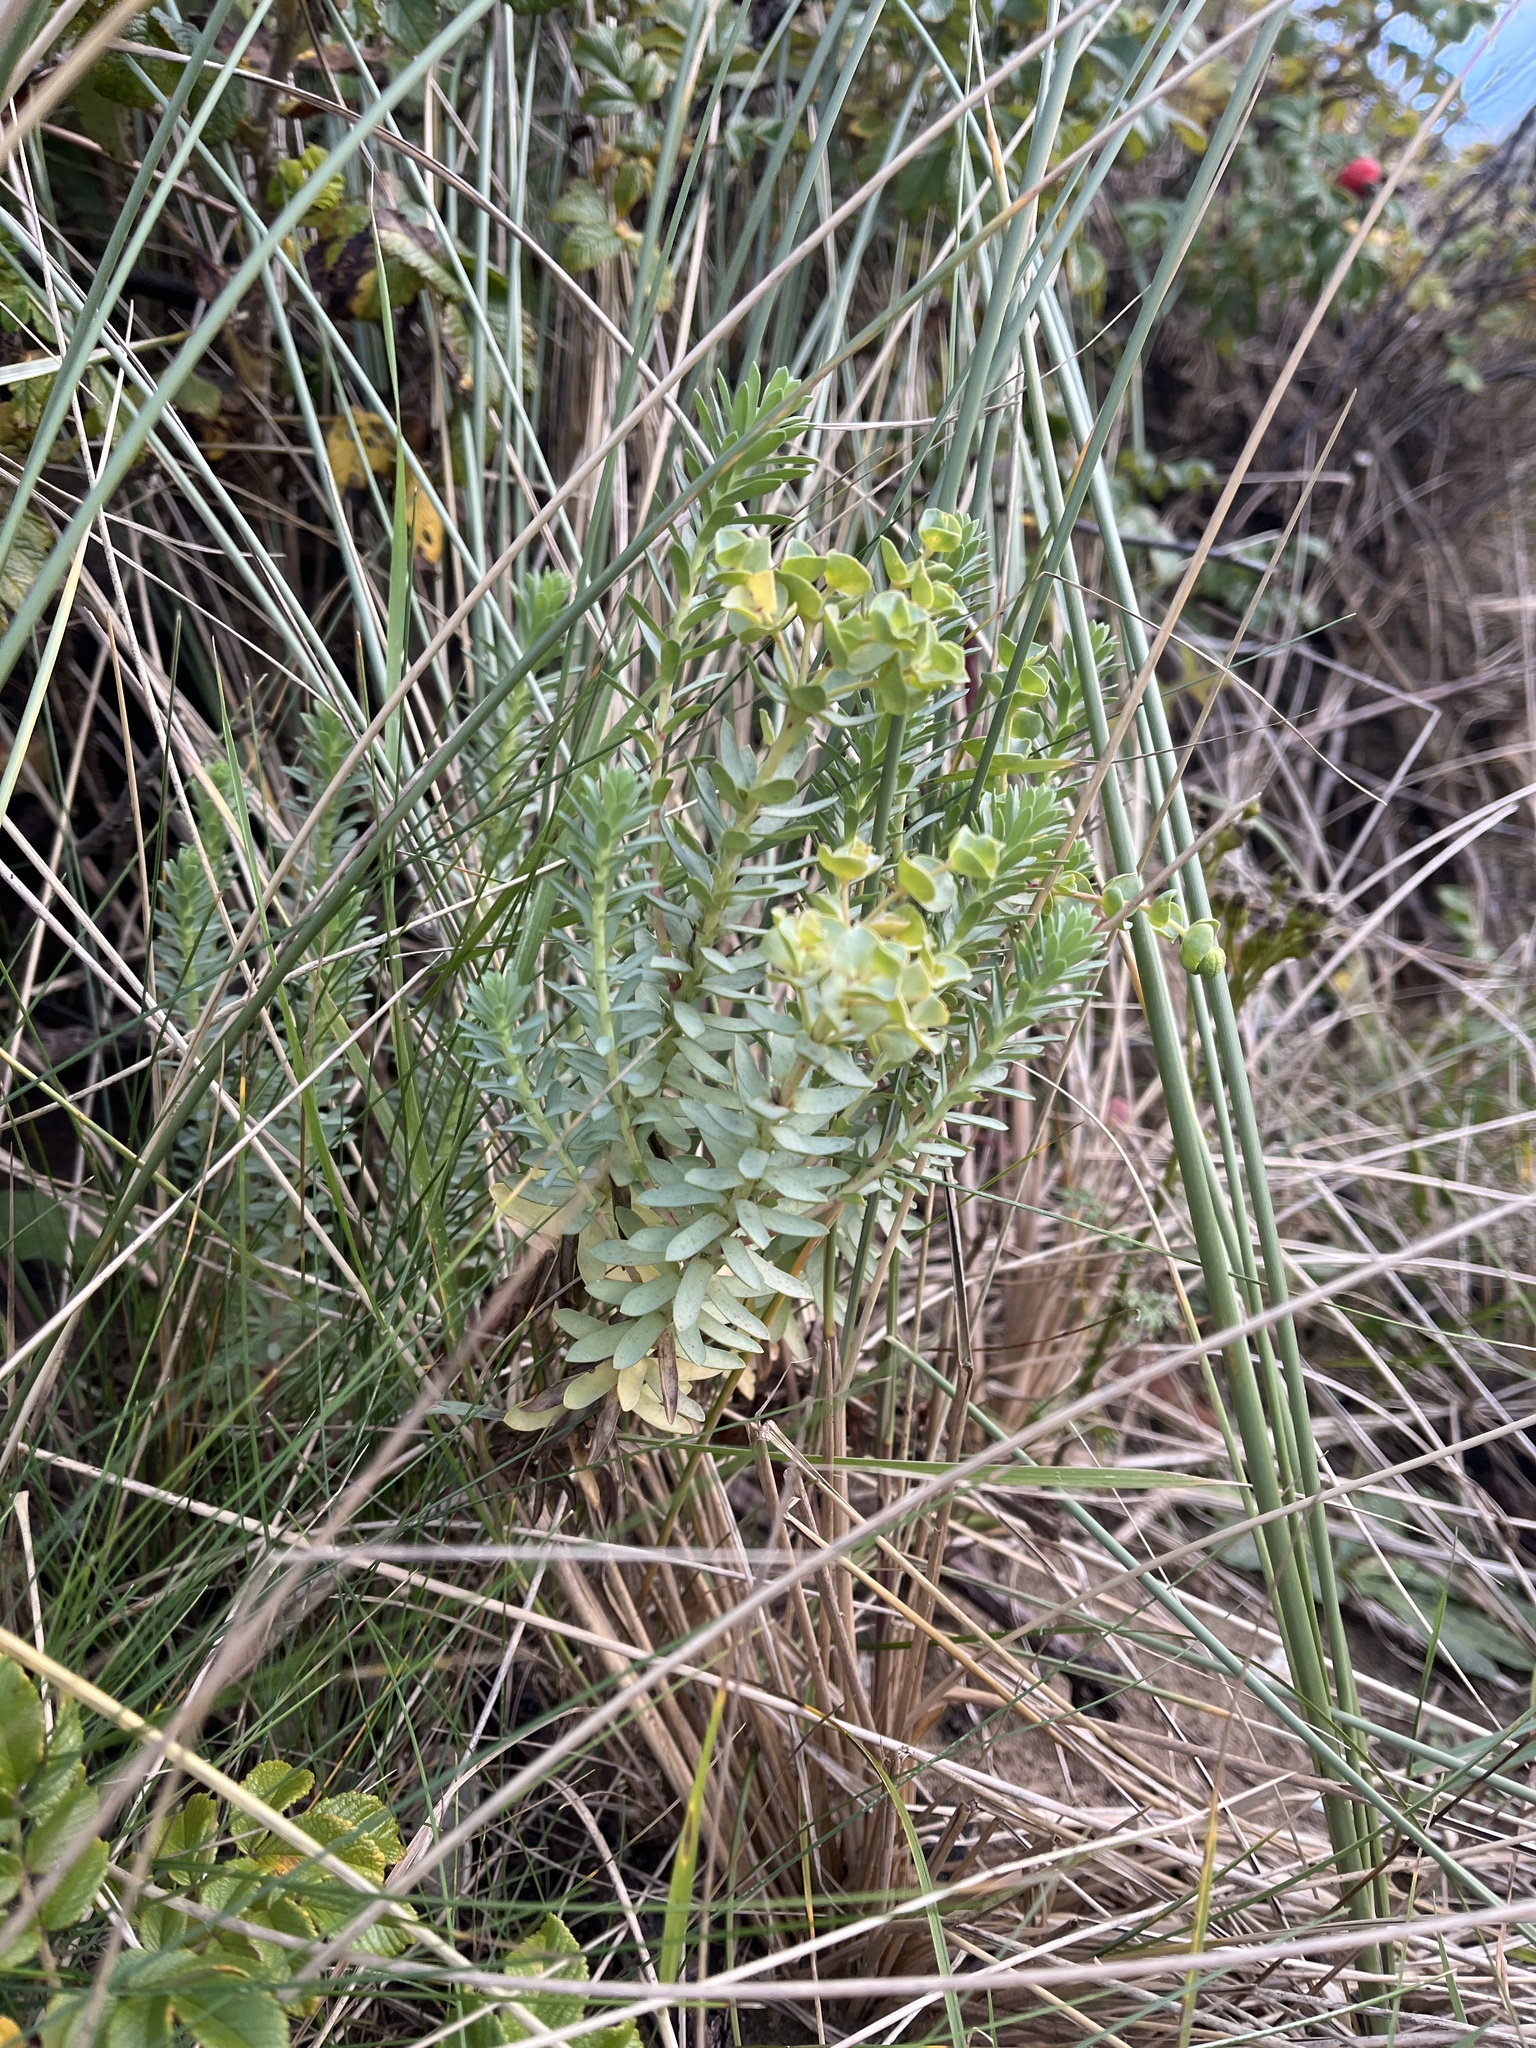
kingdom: Plantae
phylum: Tracheophyta
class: Magnoliopsida
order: Malpighiales
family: Euphorbiaceae
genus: Euphorbia
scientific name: Euphorbia paralias
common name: Sea spurge
